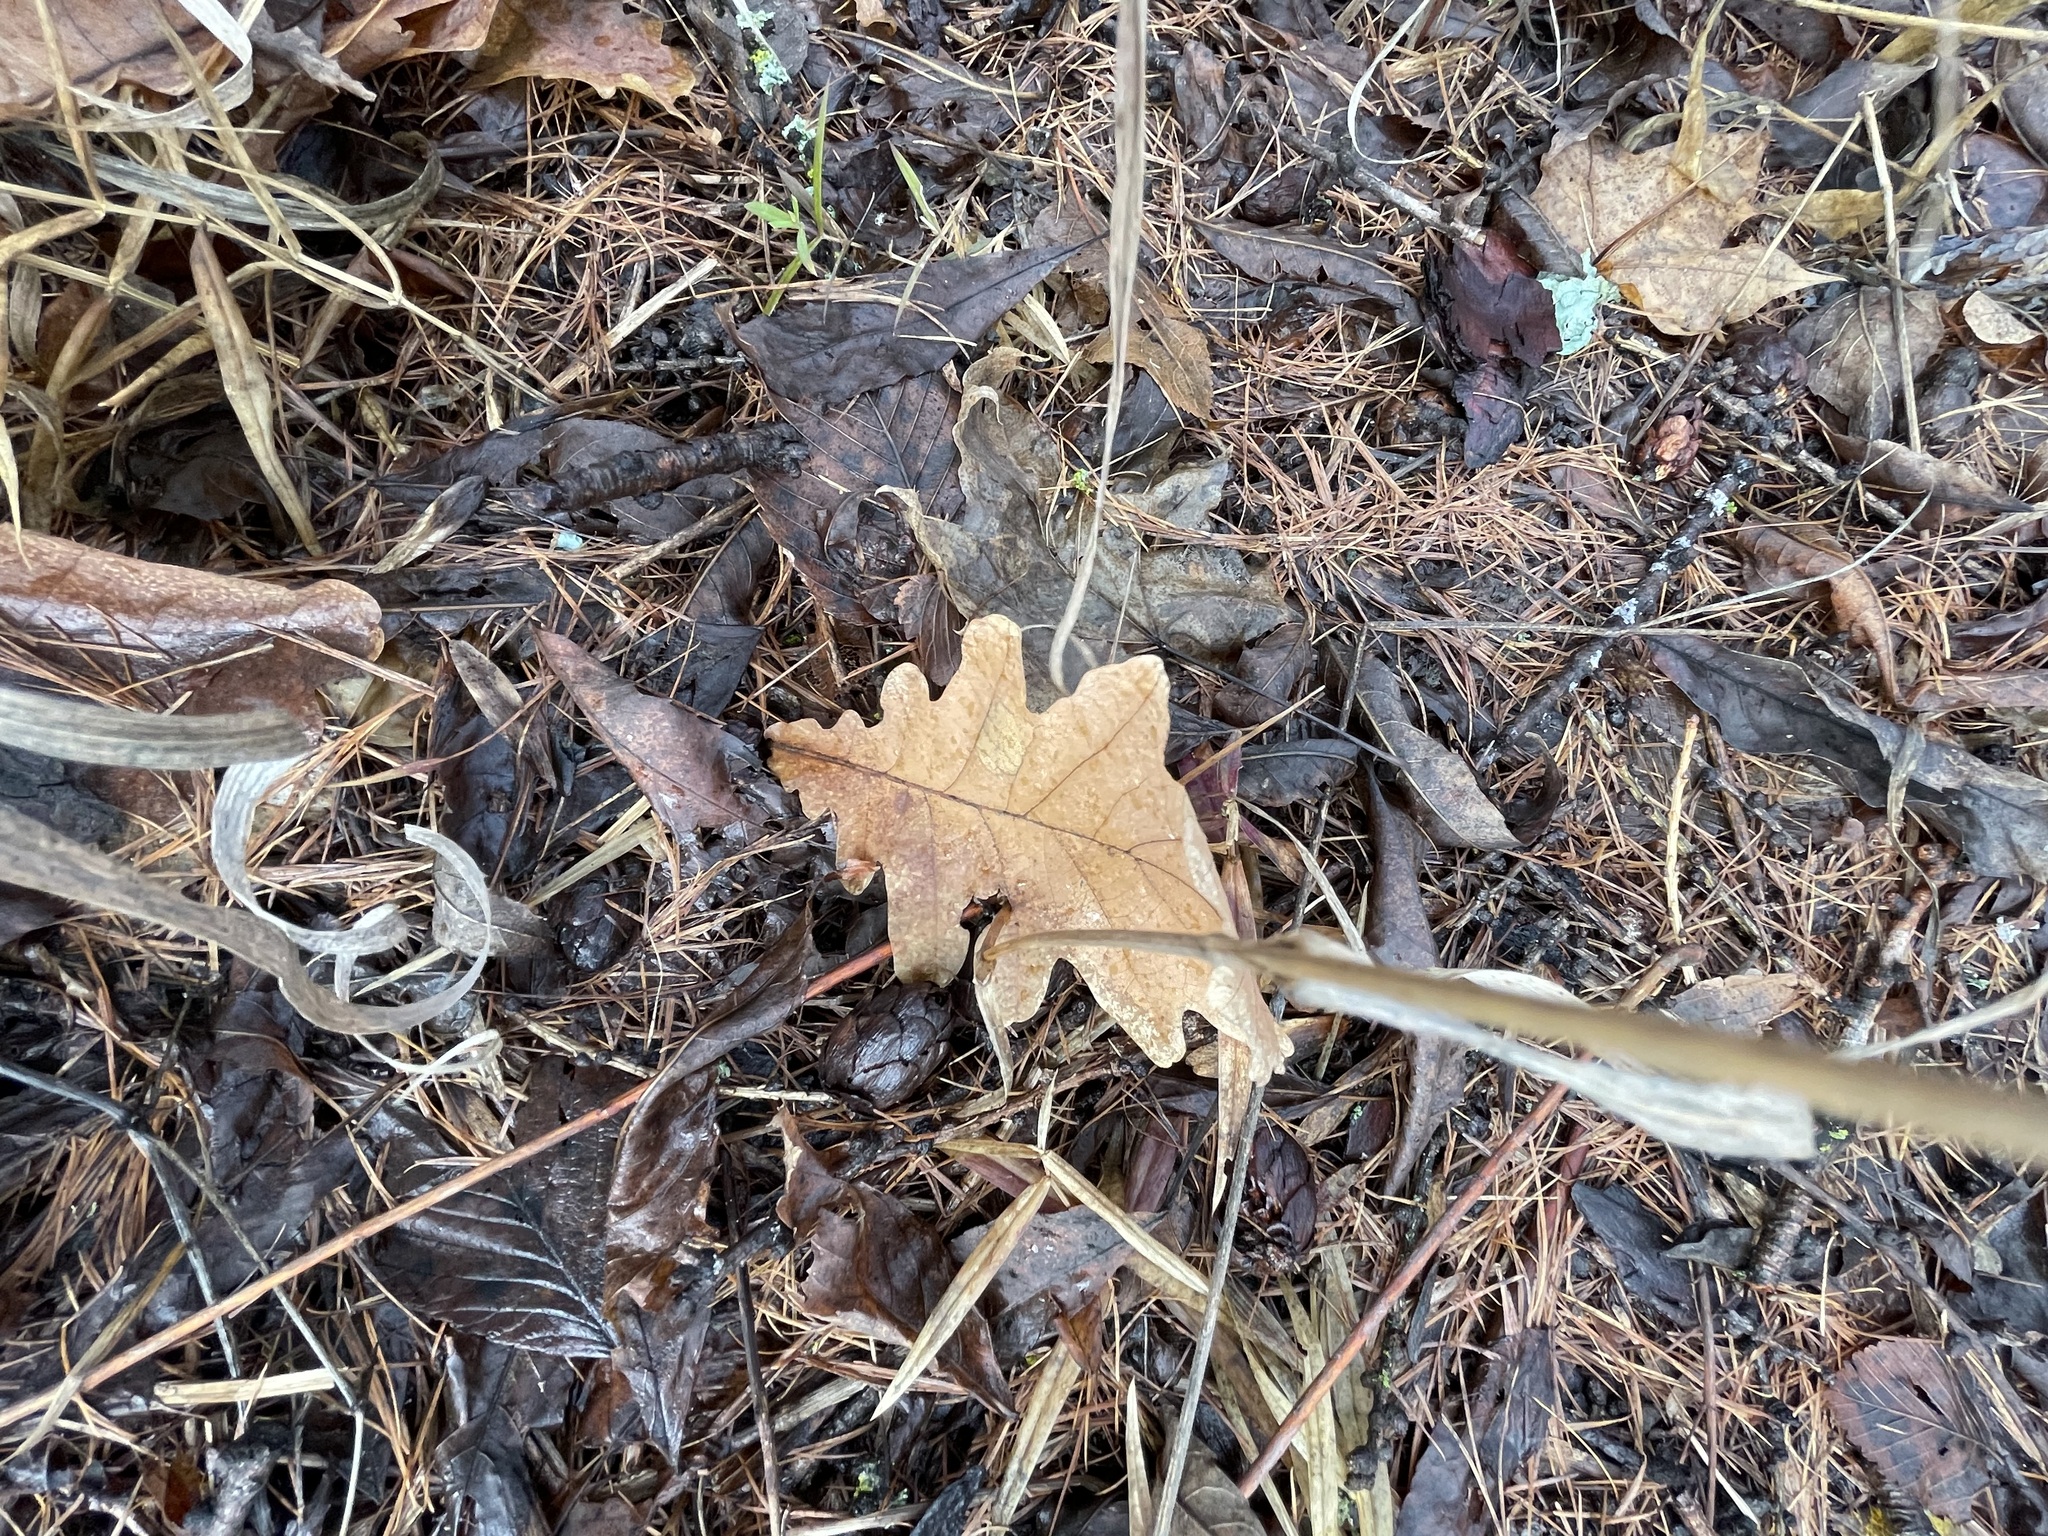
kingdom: Plantae
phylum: Tracheophyta
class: Magnoliopsida
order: Fagales
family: Fagaceae
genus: Quercus
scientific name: Quercus robur
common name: Pedunculate oak
